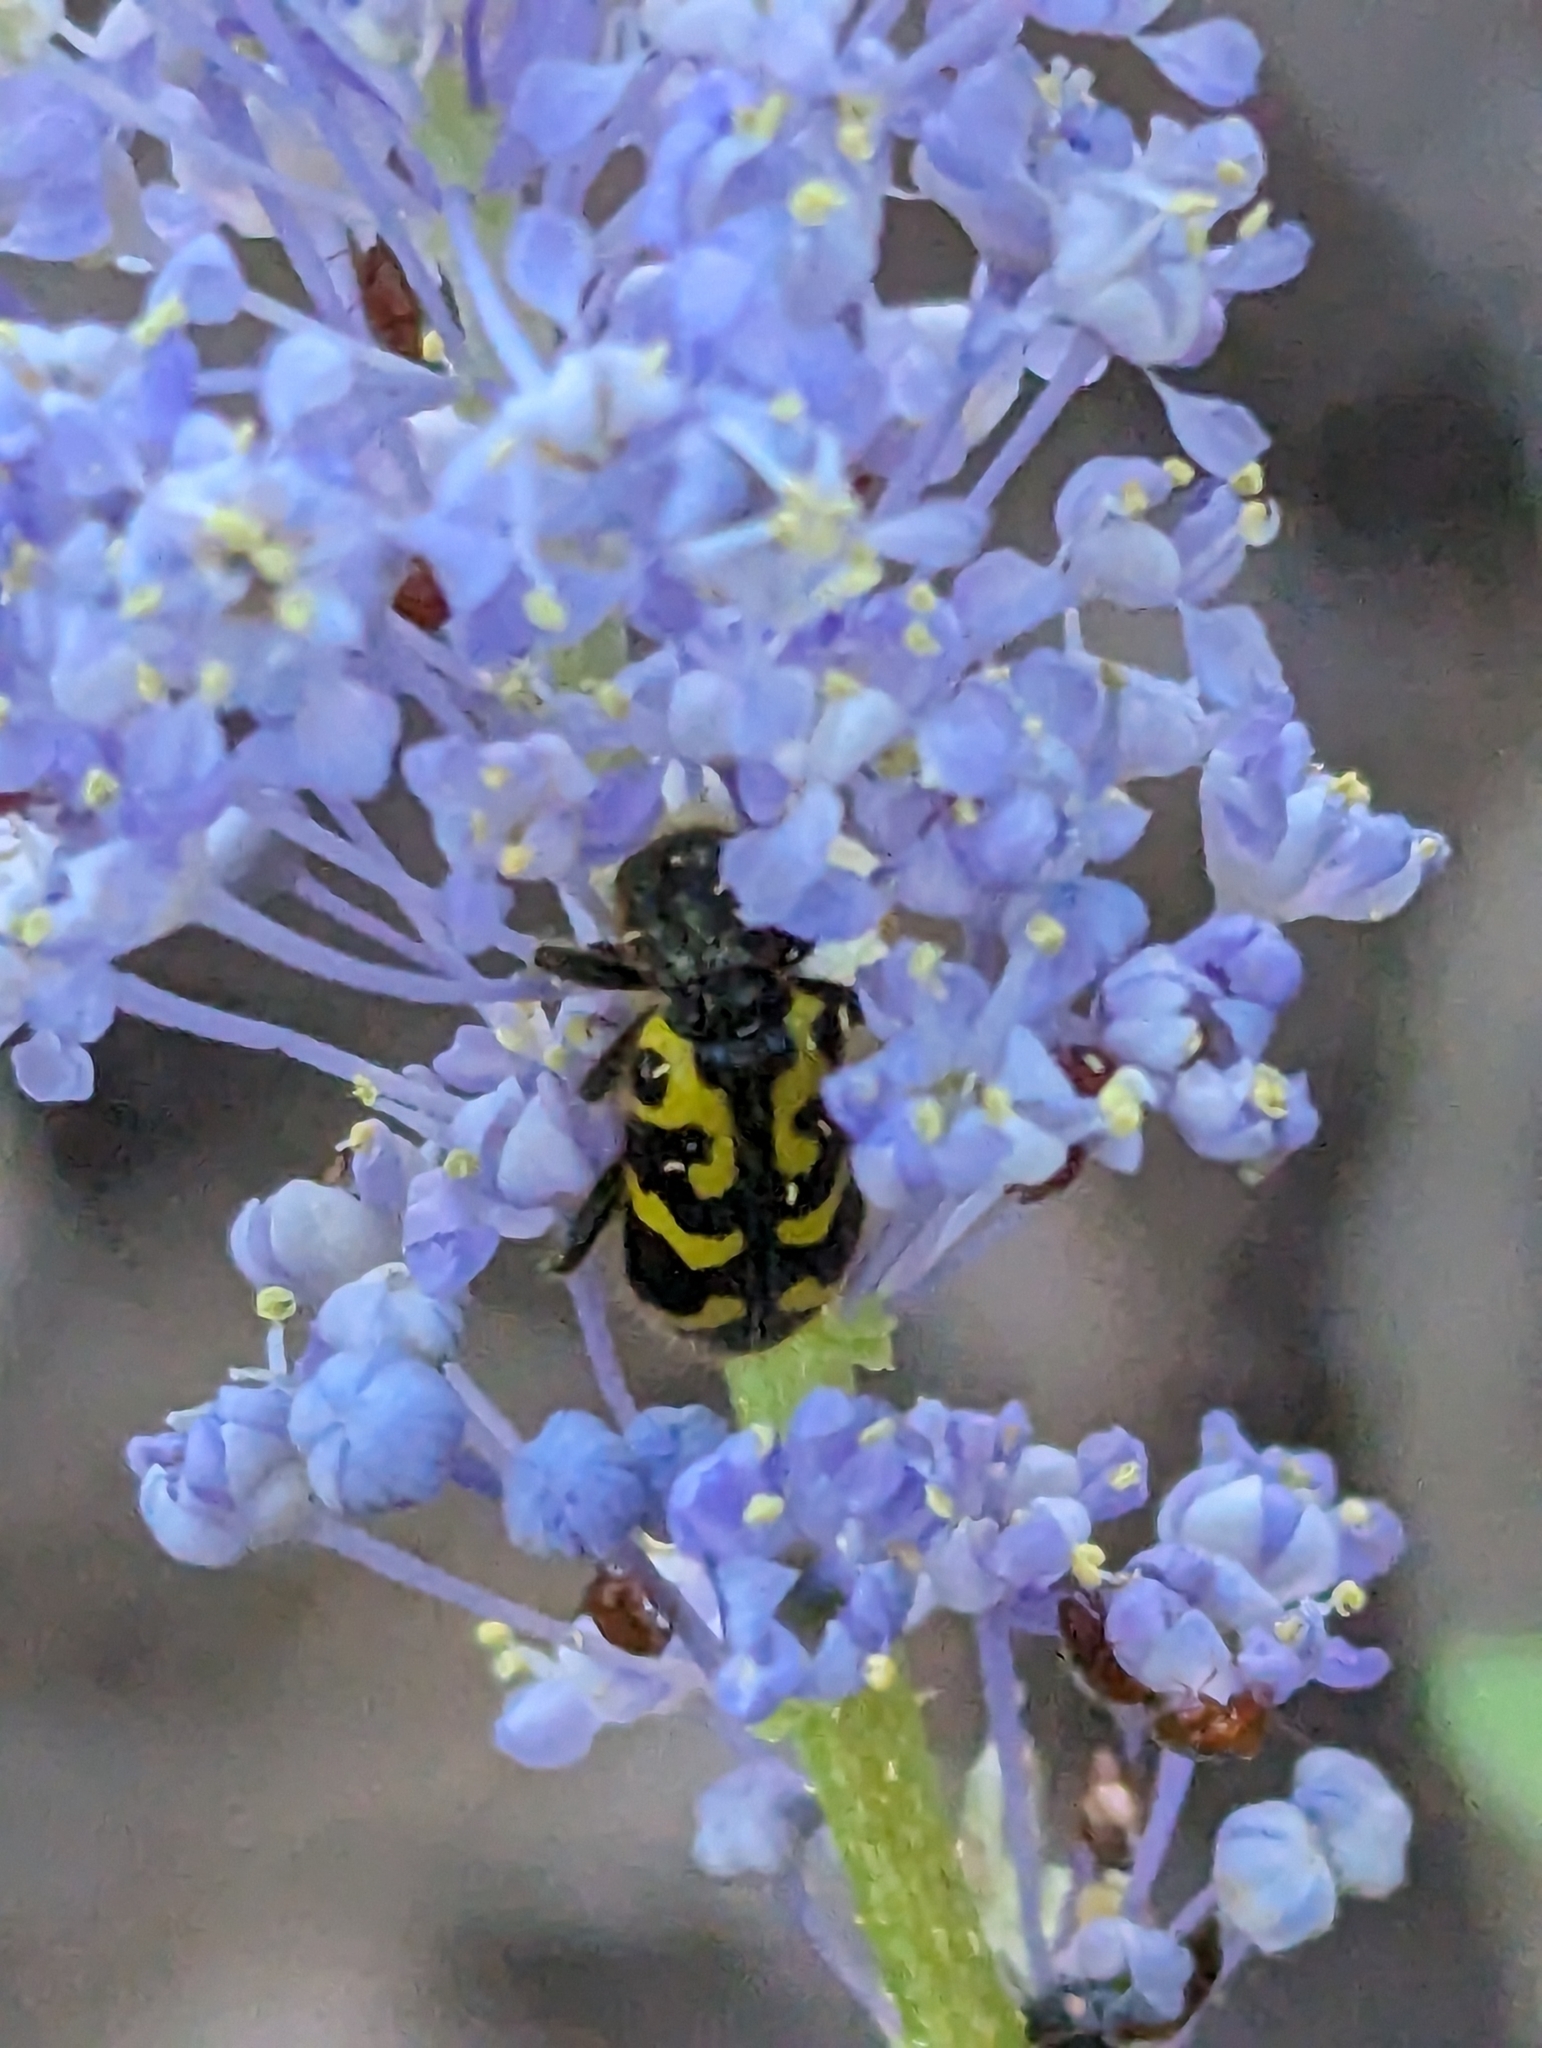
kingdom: Animalia
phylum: Arthropoda
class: Insecta
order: Coleoptera
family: Cleridae
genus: Trichodes
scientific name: Trichodes ornatus
